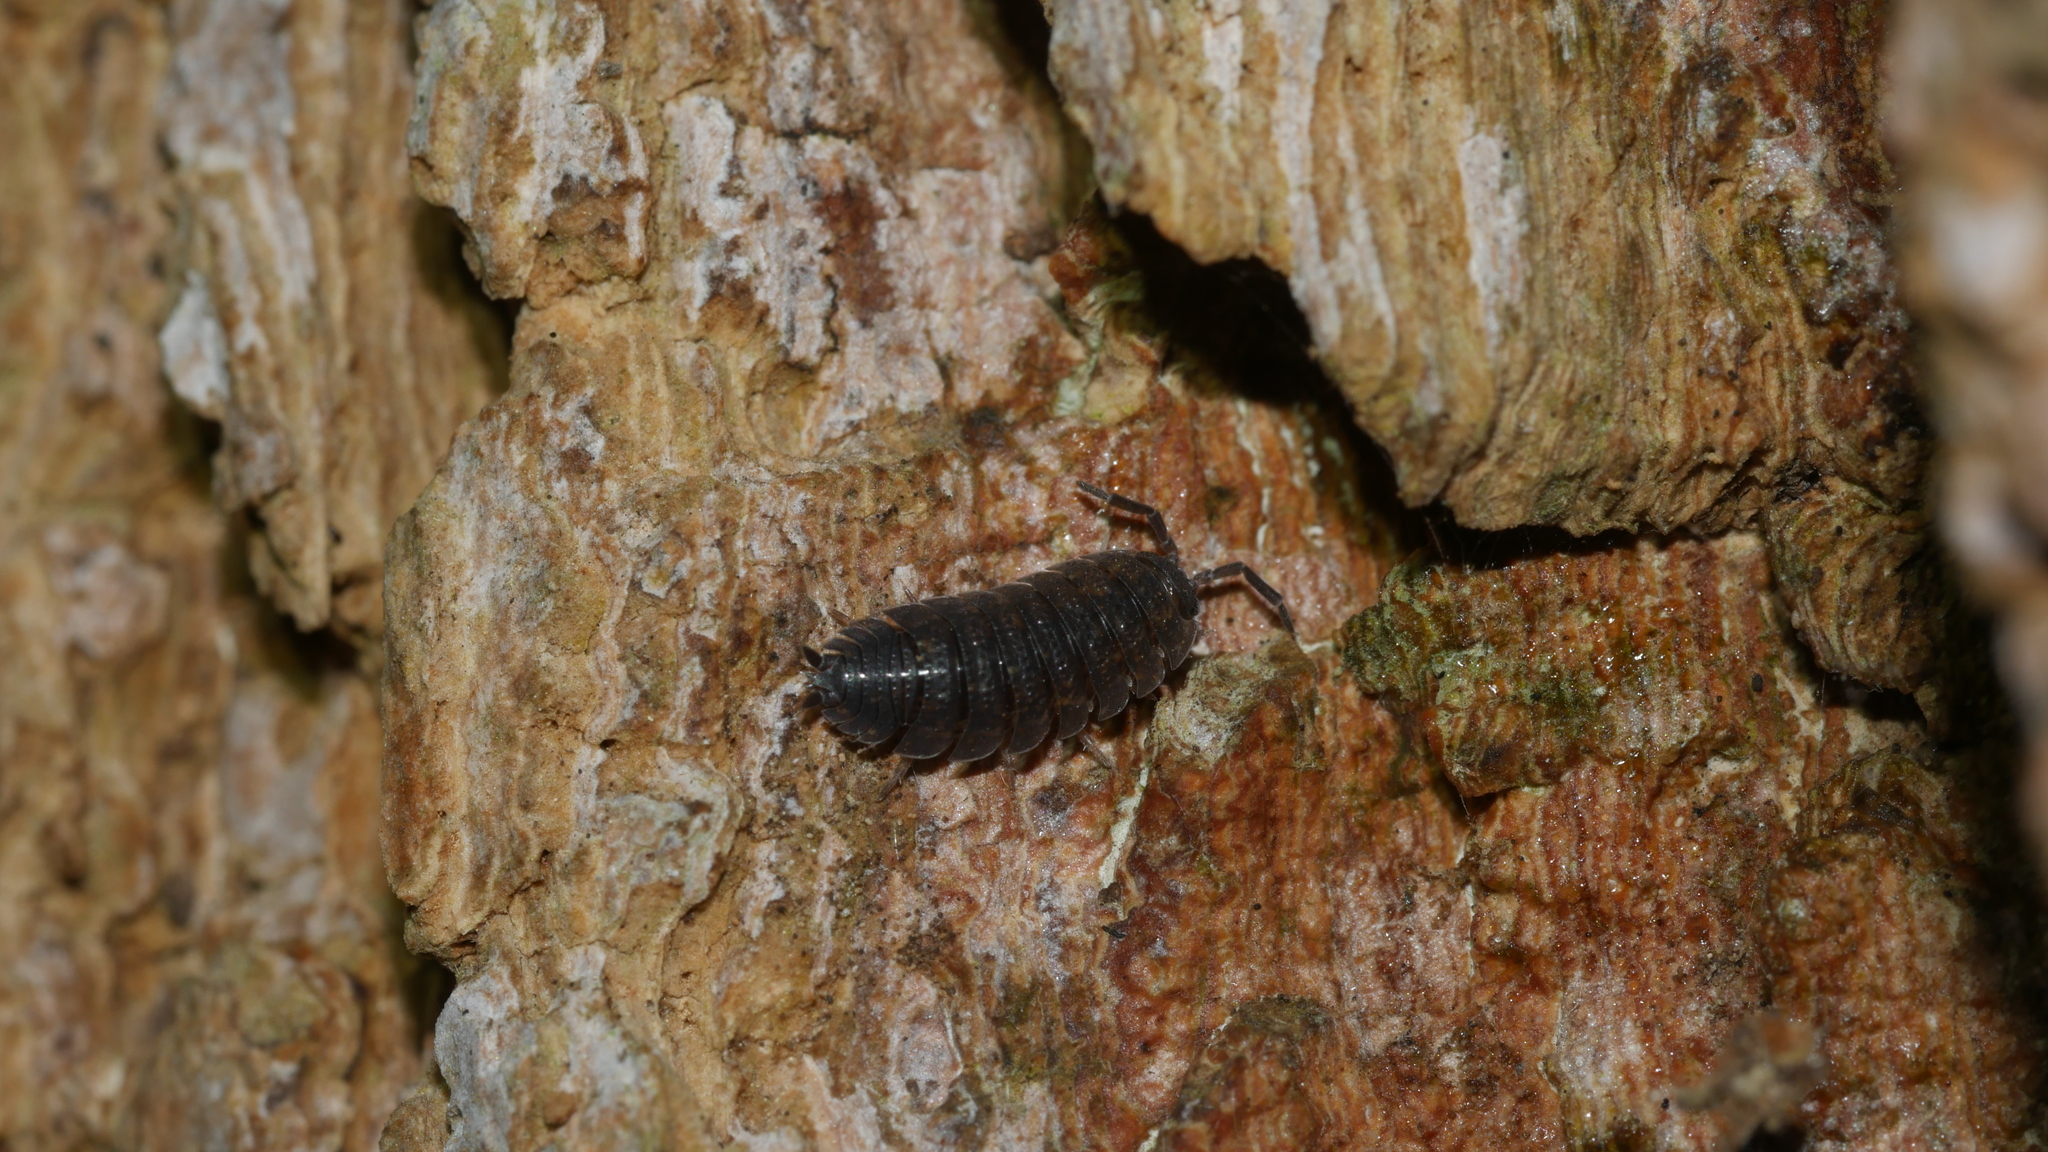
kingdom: Animalia
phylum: Arthropoda
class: Malacostraca
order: Isopoda
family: Porcellionidae
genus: Porcellio
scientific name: Porcellio scaber
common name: Common rough woodlouse
